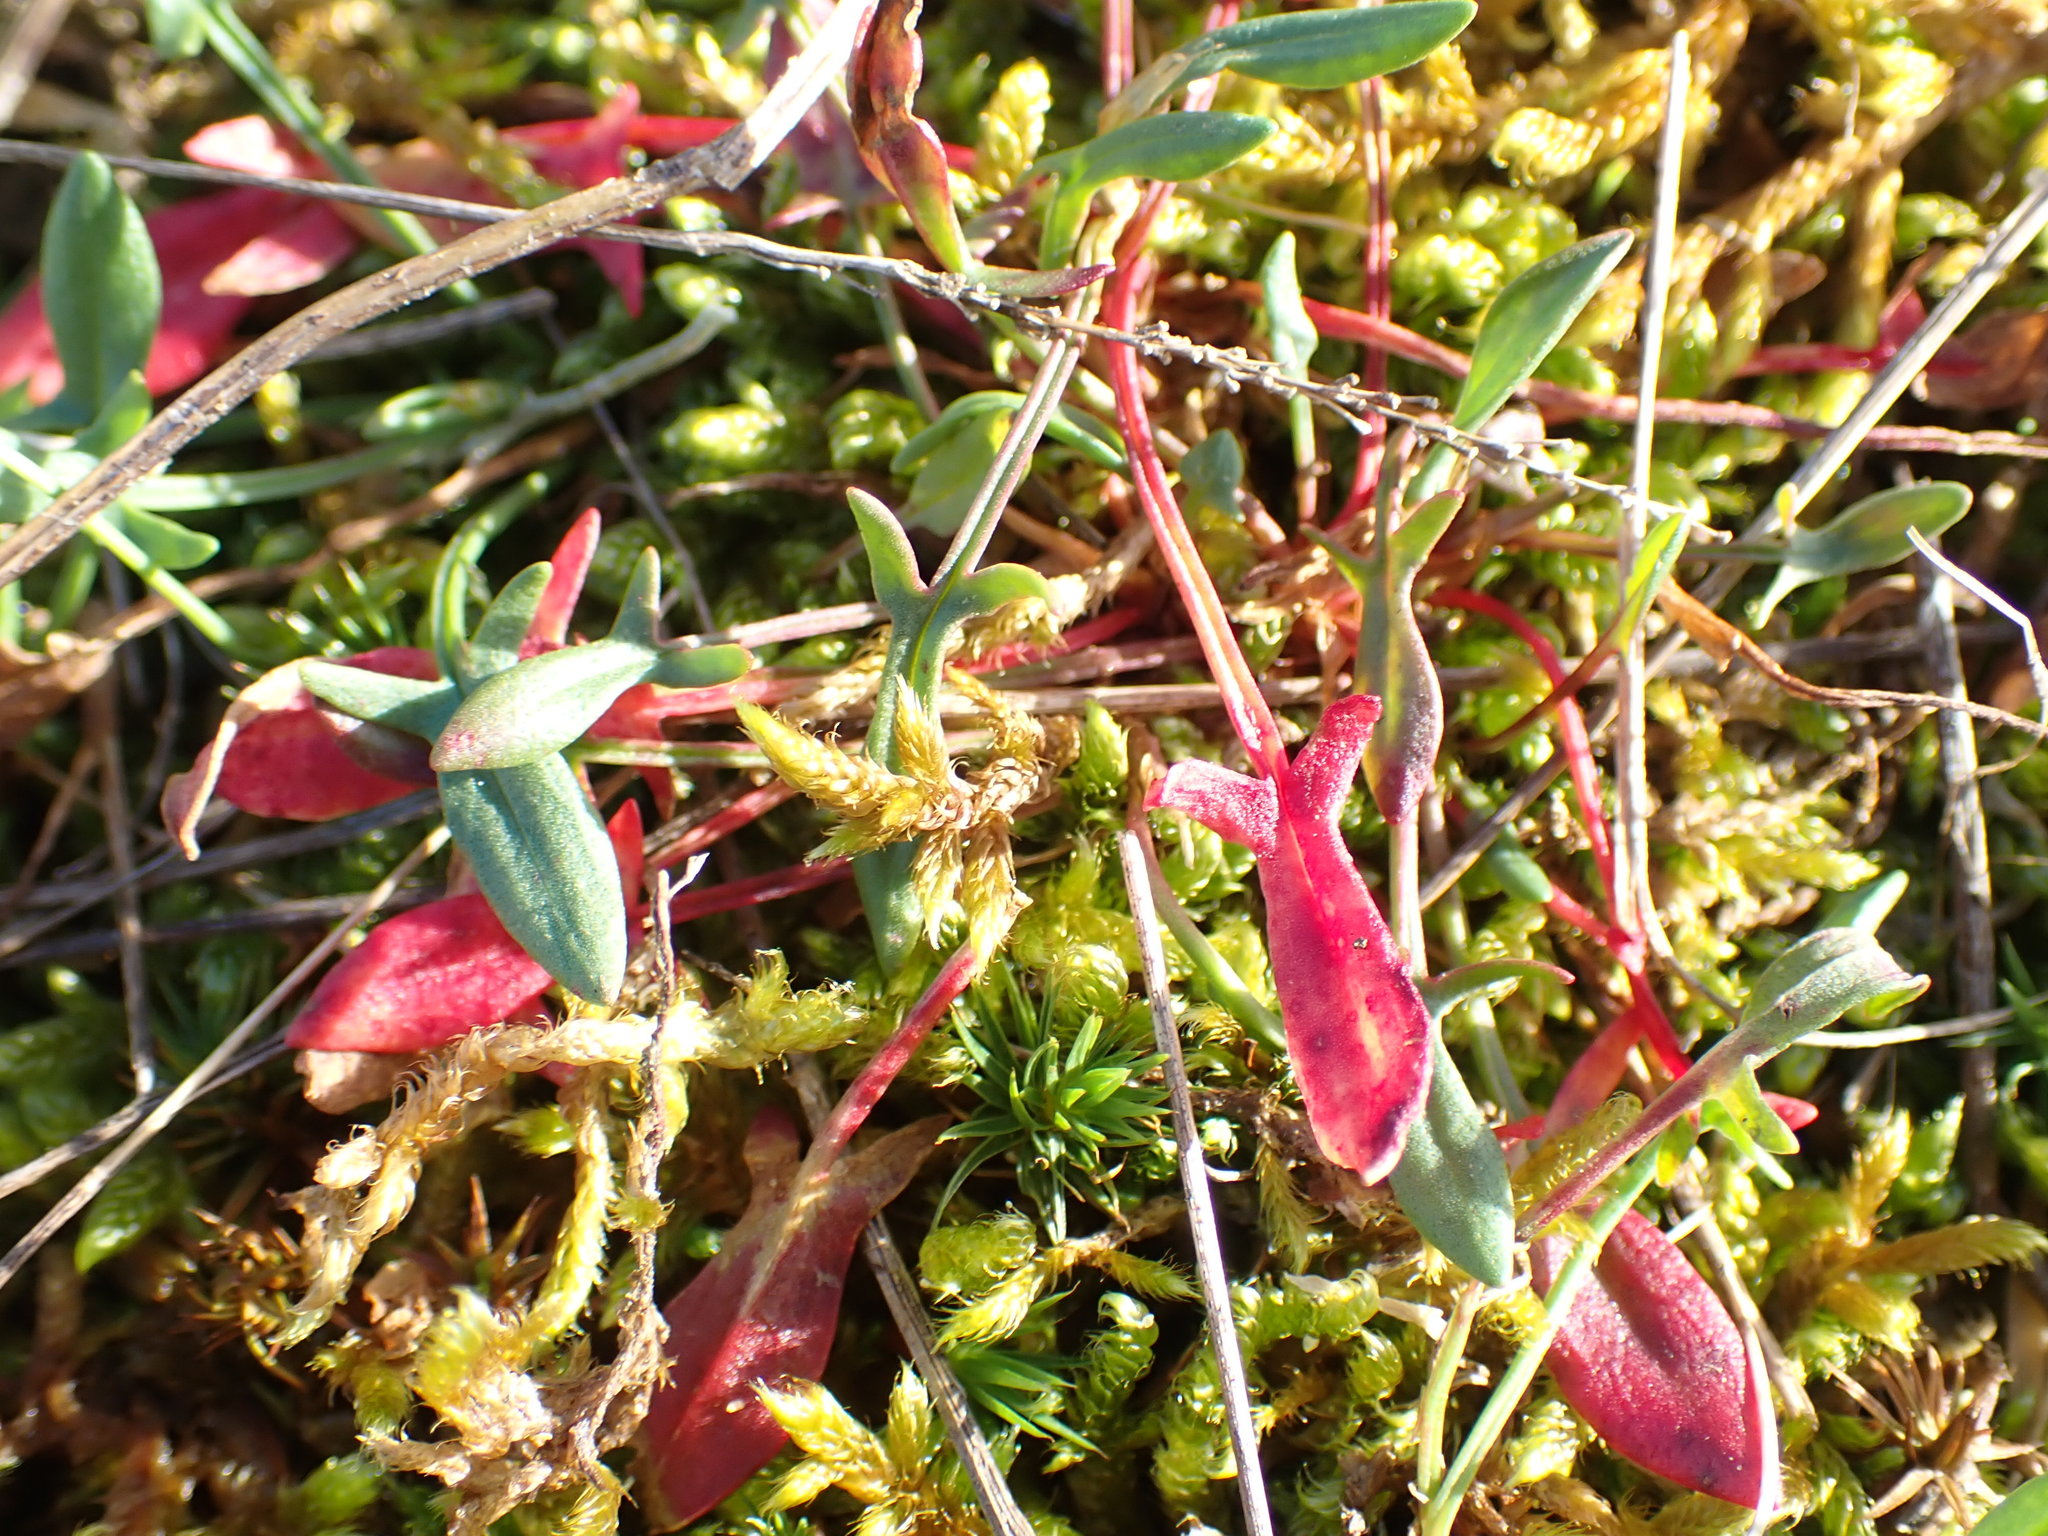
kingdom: Plantae
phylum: Tracheophyta
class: Magnoliopsida
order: Caryophyllales
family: Polygonaceae
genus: Rumex
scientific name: Rumex acetosella
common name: Common sheep sorrel
